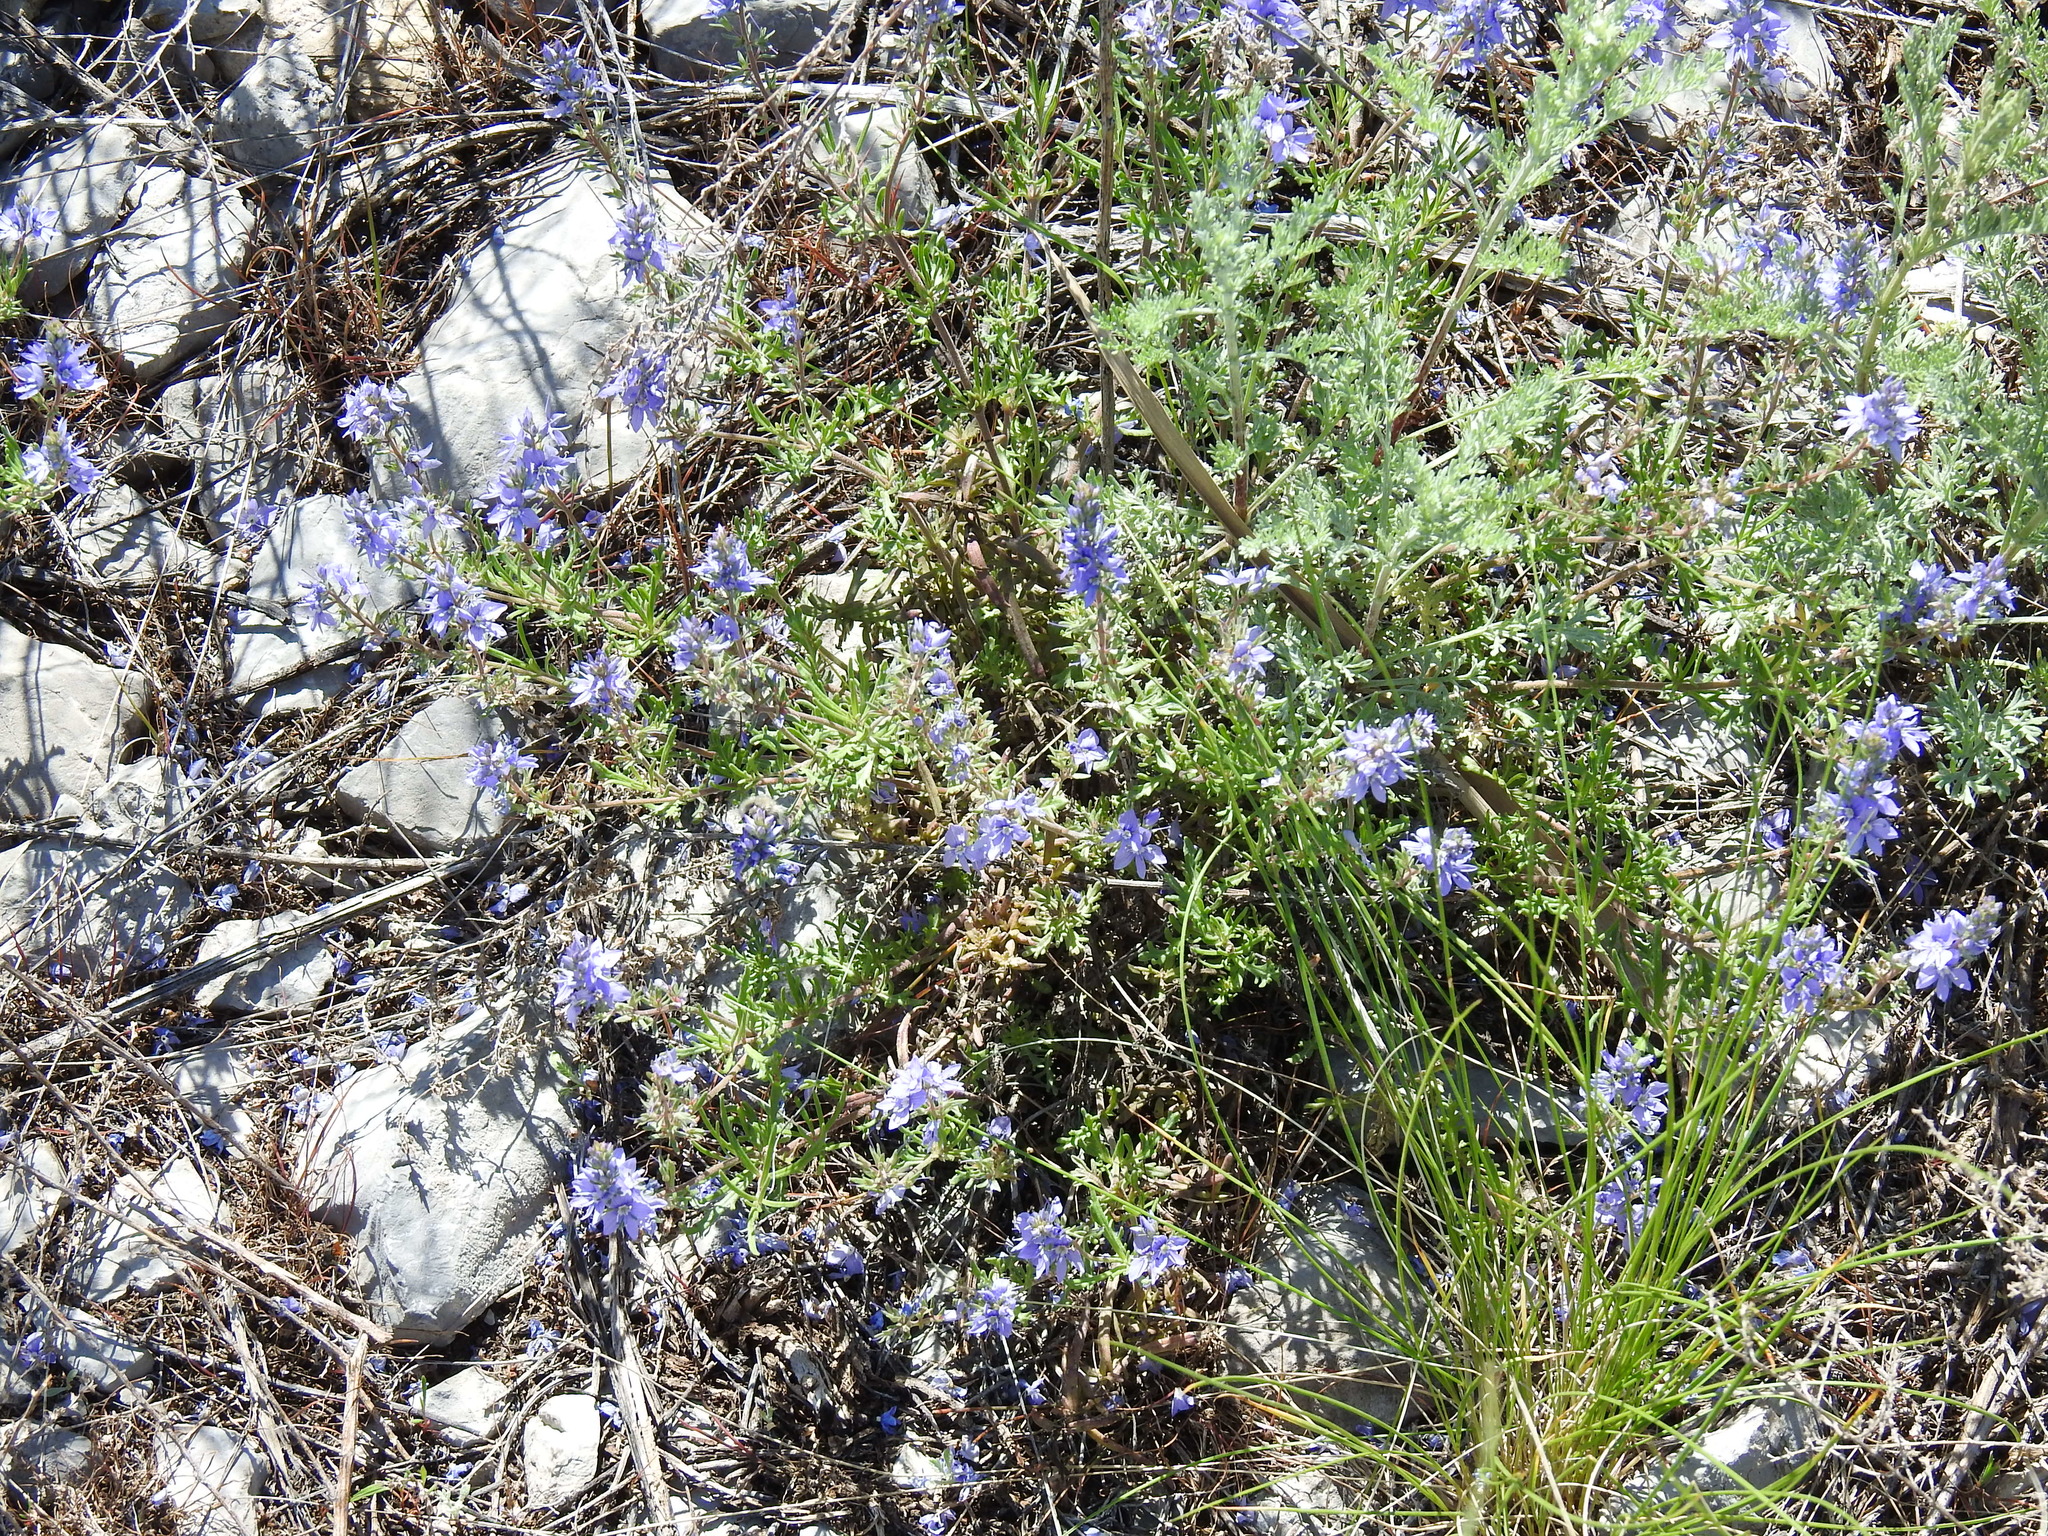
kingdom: Plantae
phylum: Tracheophyta
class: Magnoliopsida
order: Lamiales
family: Plantaginaceae
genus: Veronica
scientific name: Veronica multifida
